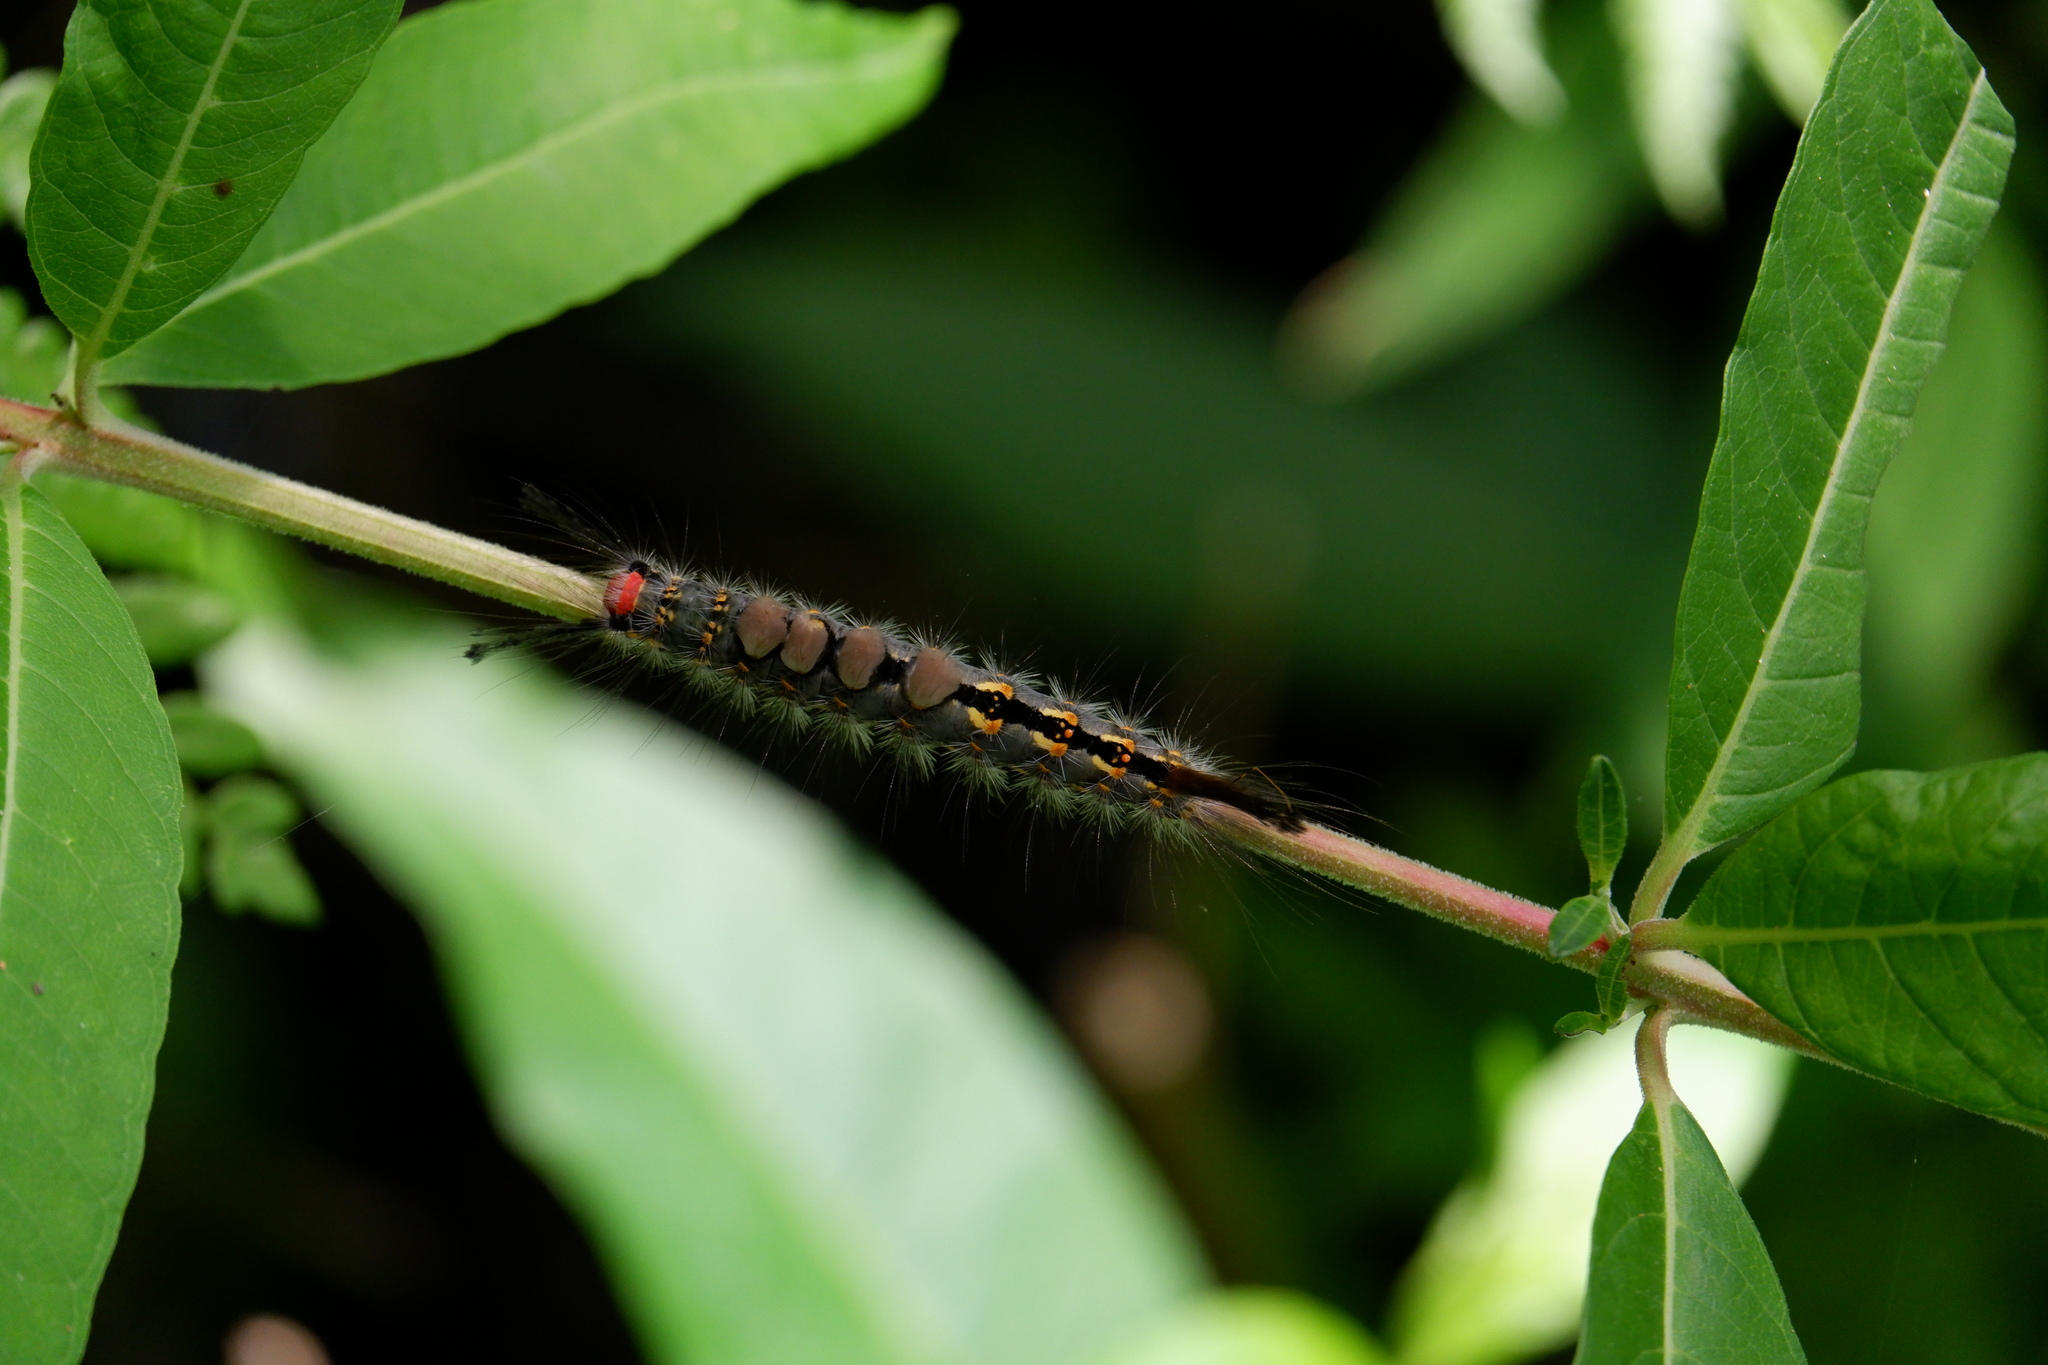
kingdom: Animalia
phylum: Arthropoda
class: Insecta
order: Lepidoptera
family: Erebidae
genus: Orgyia
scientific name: Orgyia detrita
